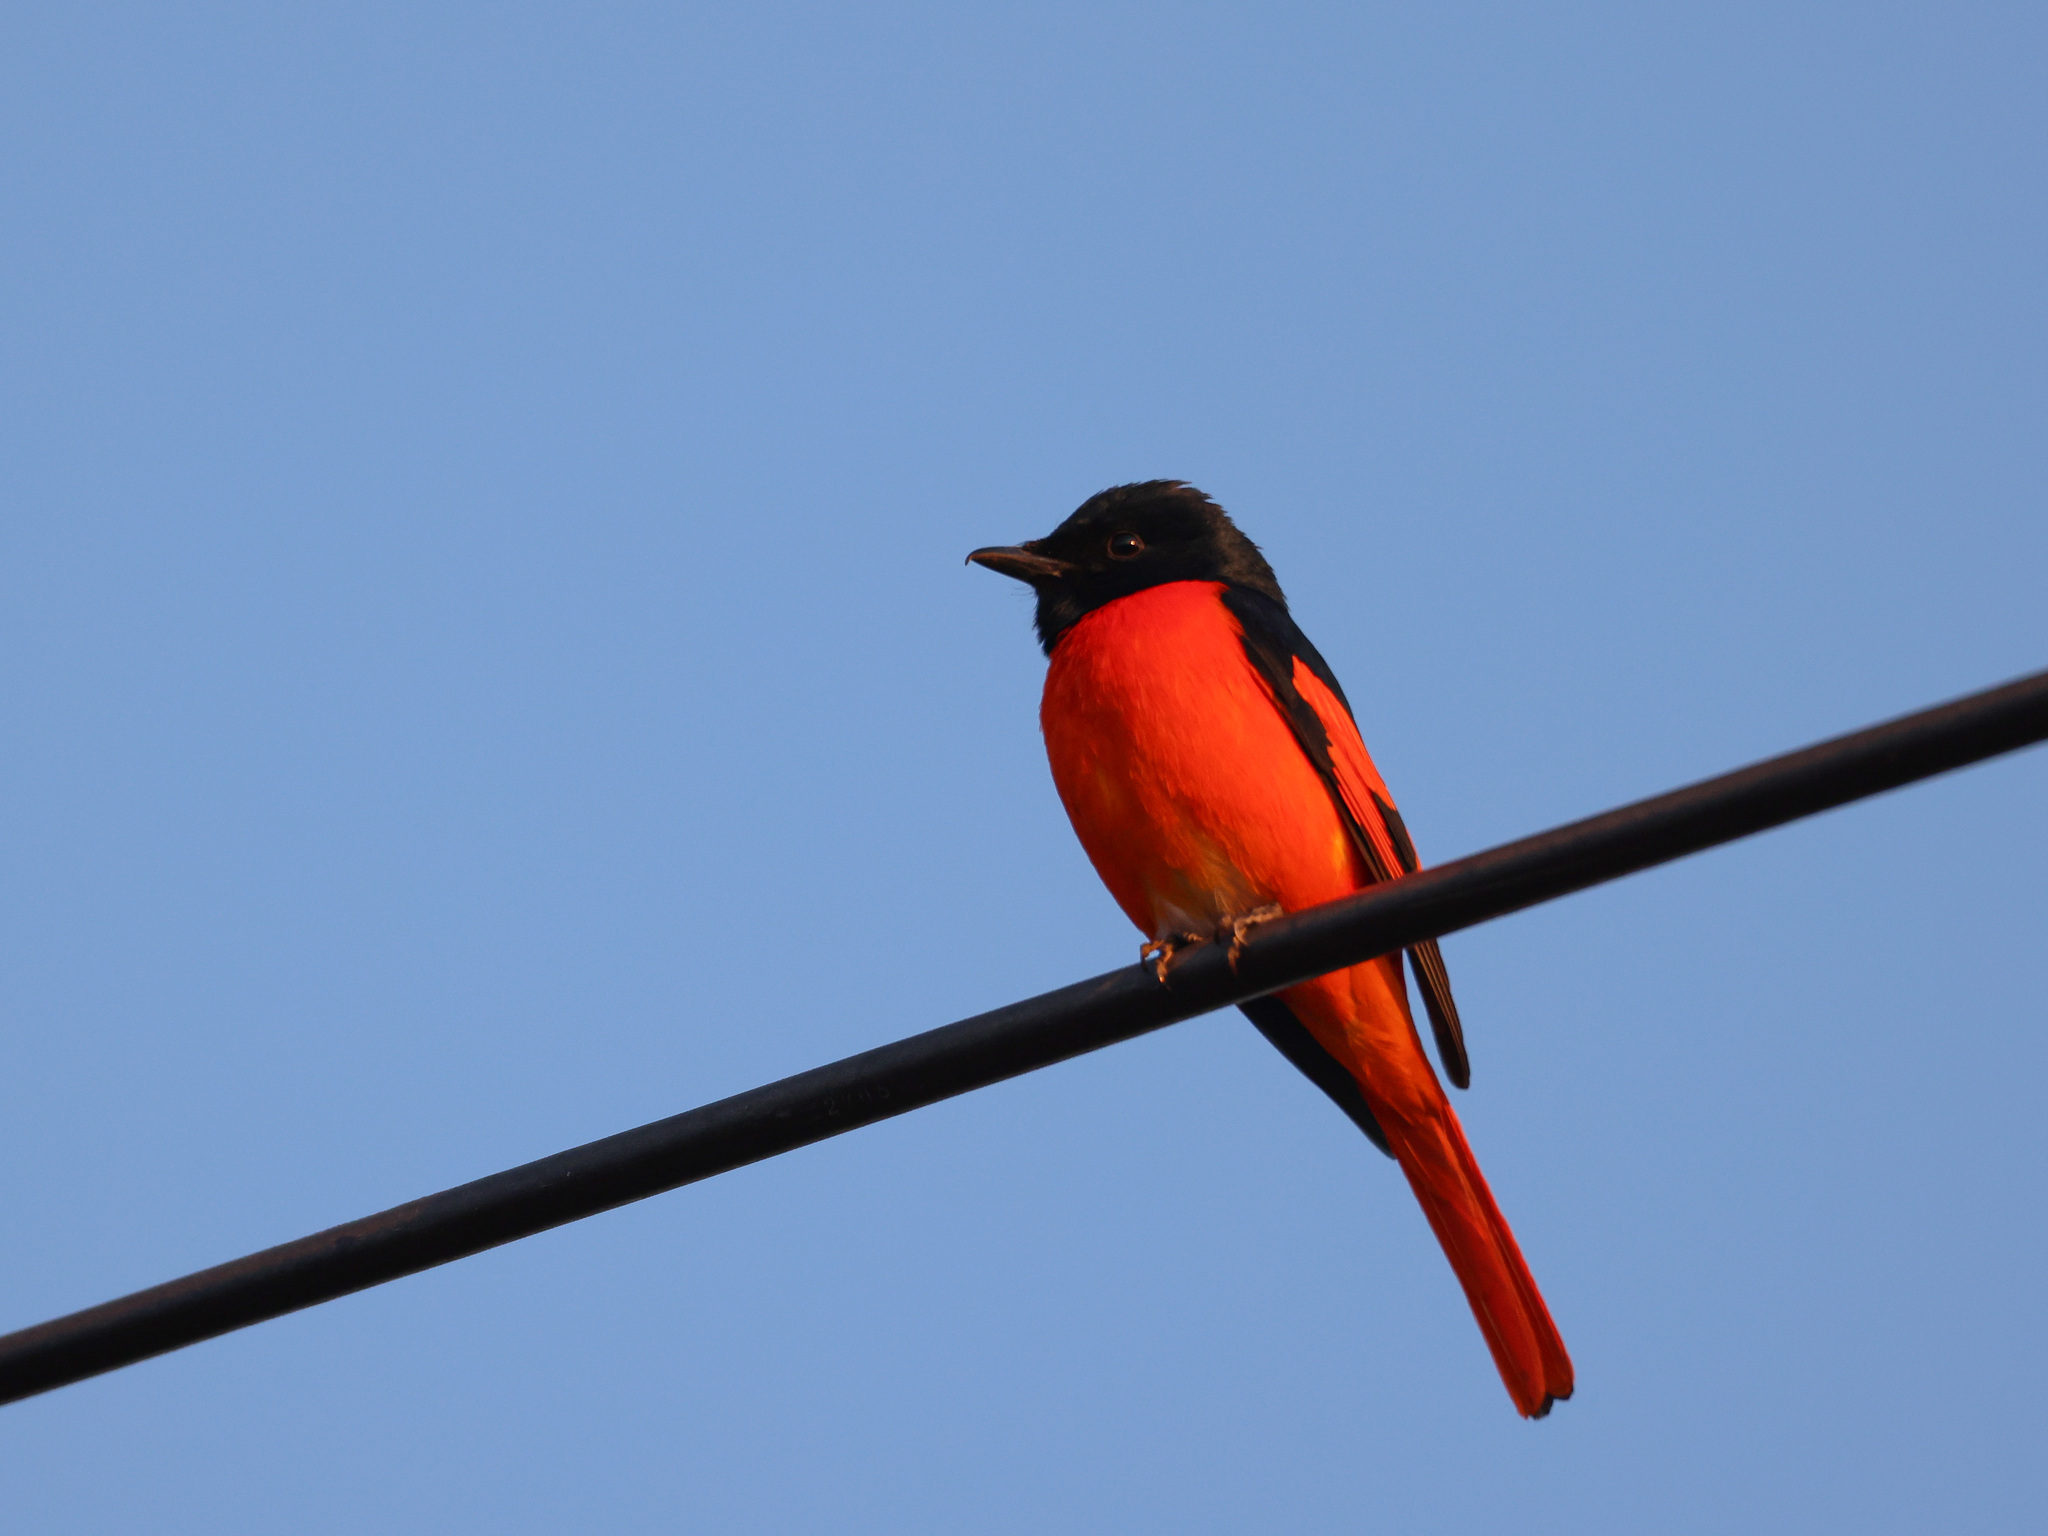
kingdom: Animalia
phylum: Chordata
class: Aves
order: Passeriformes
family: Campephagidae
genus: Pericrocotus
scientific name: Pericrocotus speciosus
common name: Scarlet minivet
